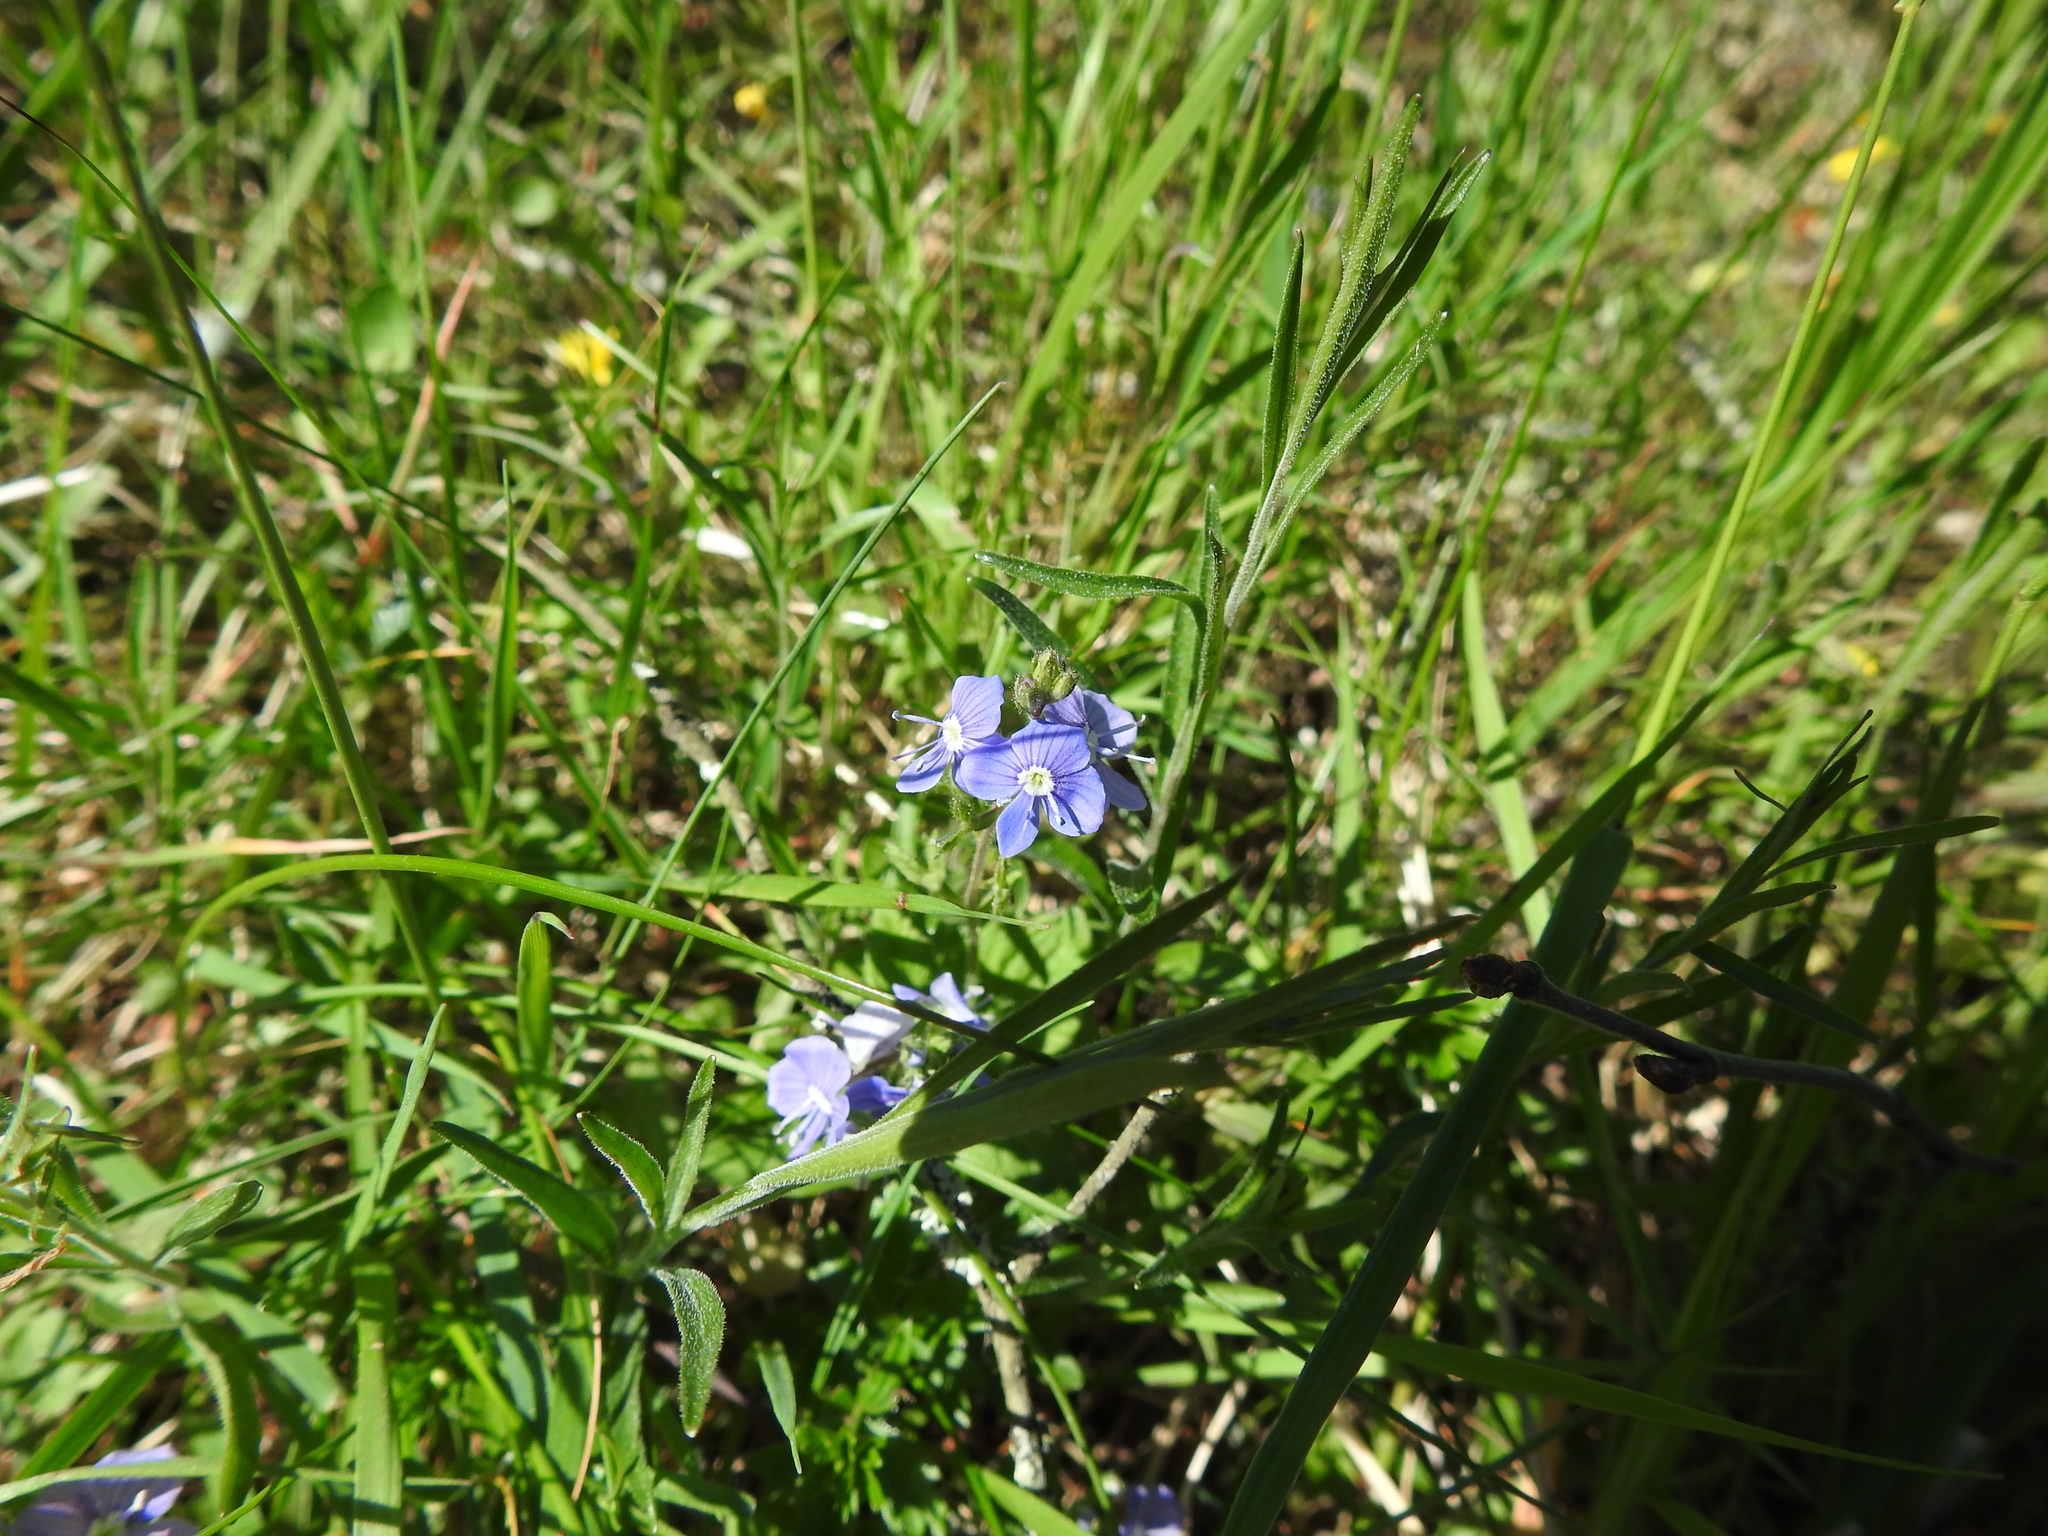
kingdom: Plantae
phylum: Tracheophyta
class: Magnoliopsida
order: Lamiales
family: Plantaginaceae
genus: Veronica
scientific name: Veronica chamaedrys
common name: Germander speedwell
